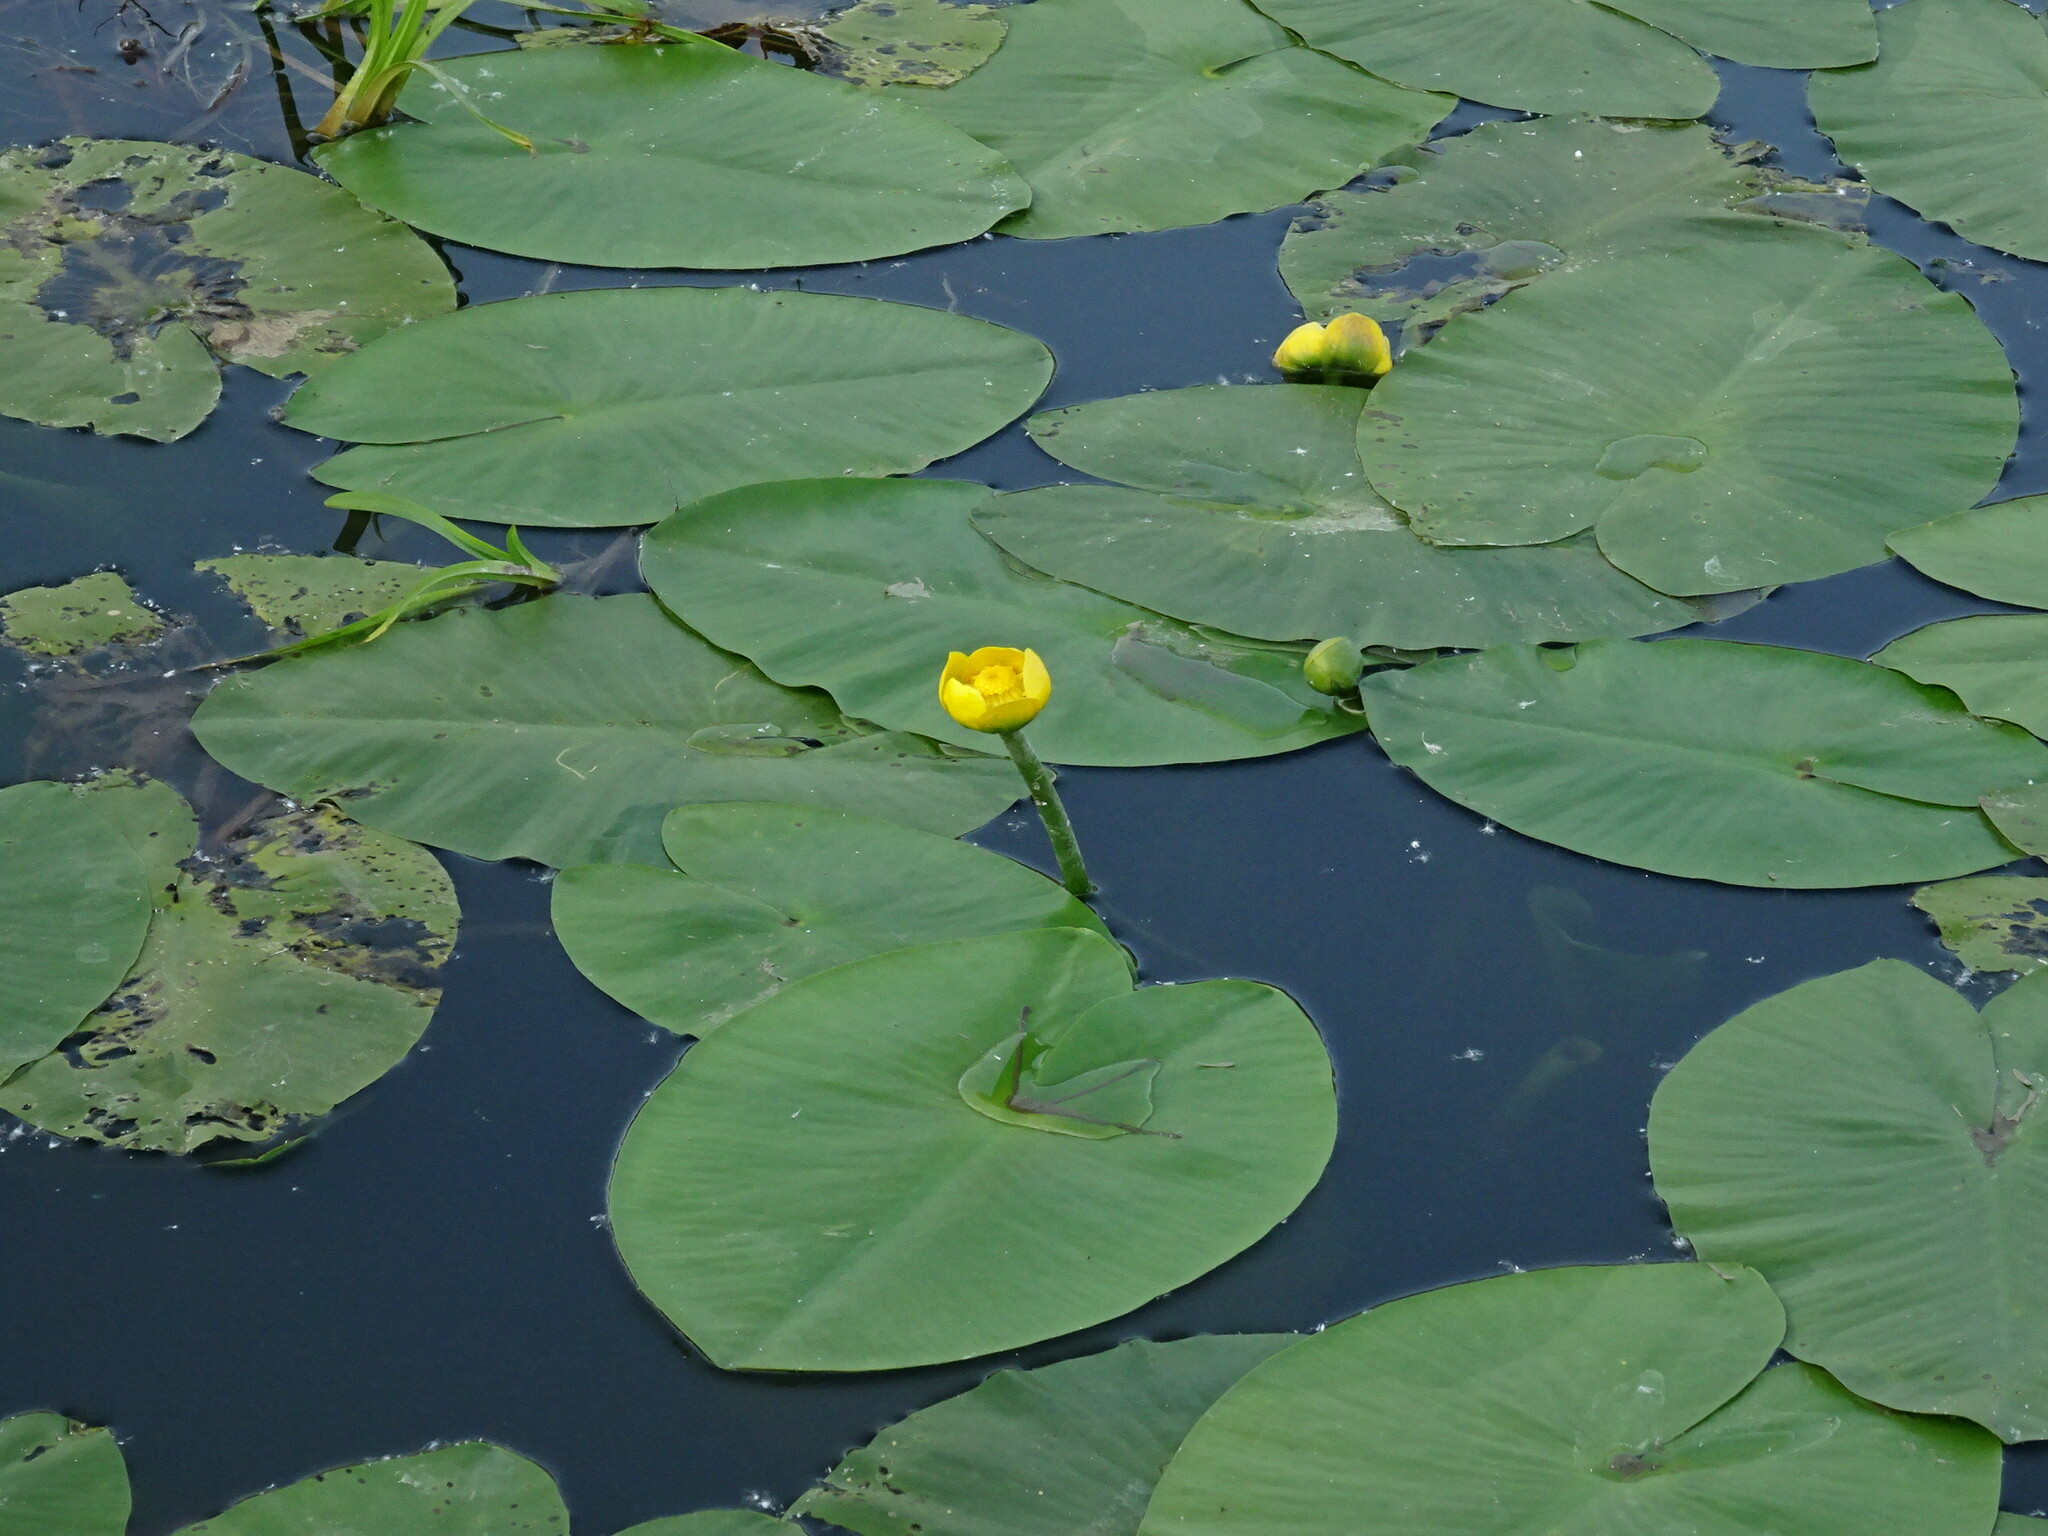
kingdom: Plantae
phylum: Tracheophyta
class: Magnoliopsida
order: Nymphaeales
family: Nymphaeaceae
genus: Nuphar
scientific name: Nuphar lutea
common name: Yellow water-lily
